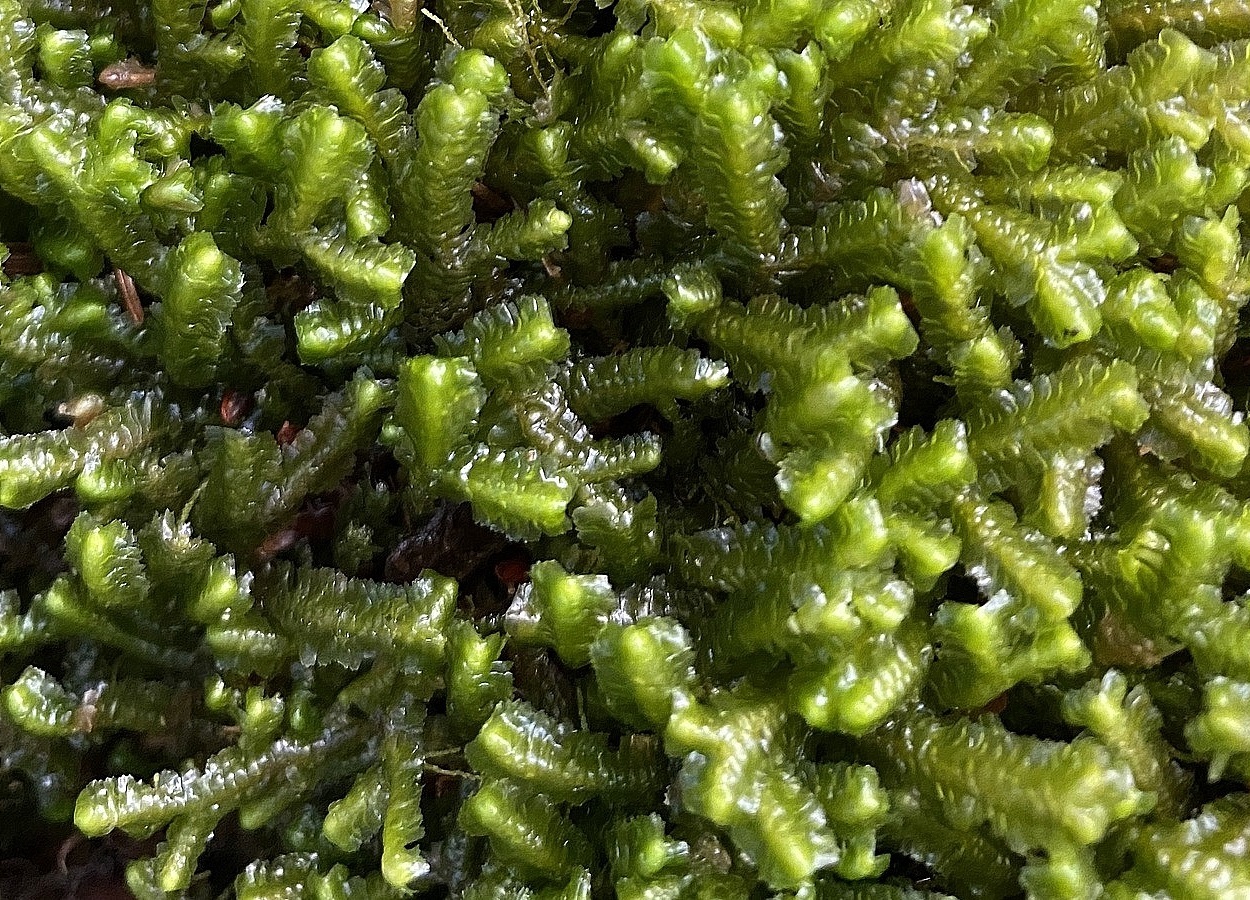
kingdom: Plantae
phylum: Marchantiophyta
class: Jungermanniopsida
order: Jungermanniales
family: Lepidoziaceae
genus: Bazzania
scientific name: Bazzania trilobata
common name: Three-lobed whipwort
